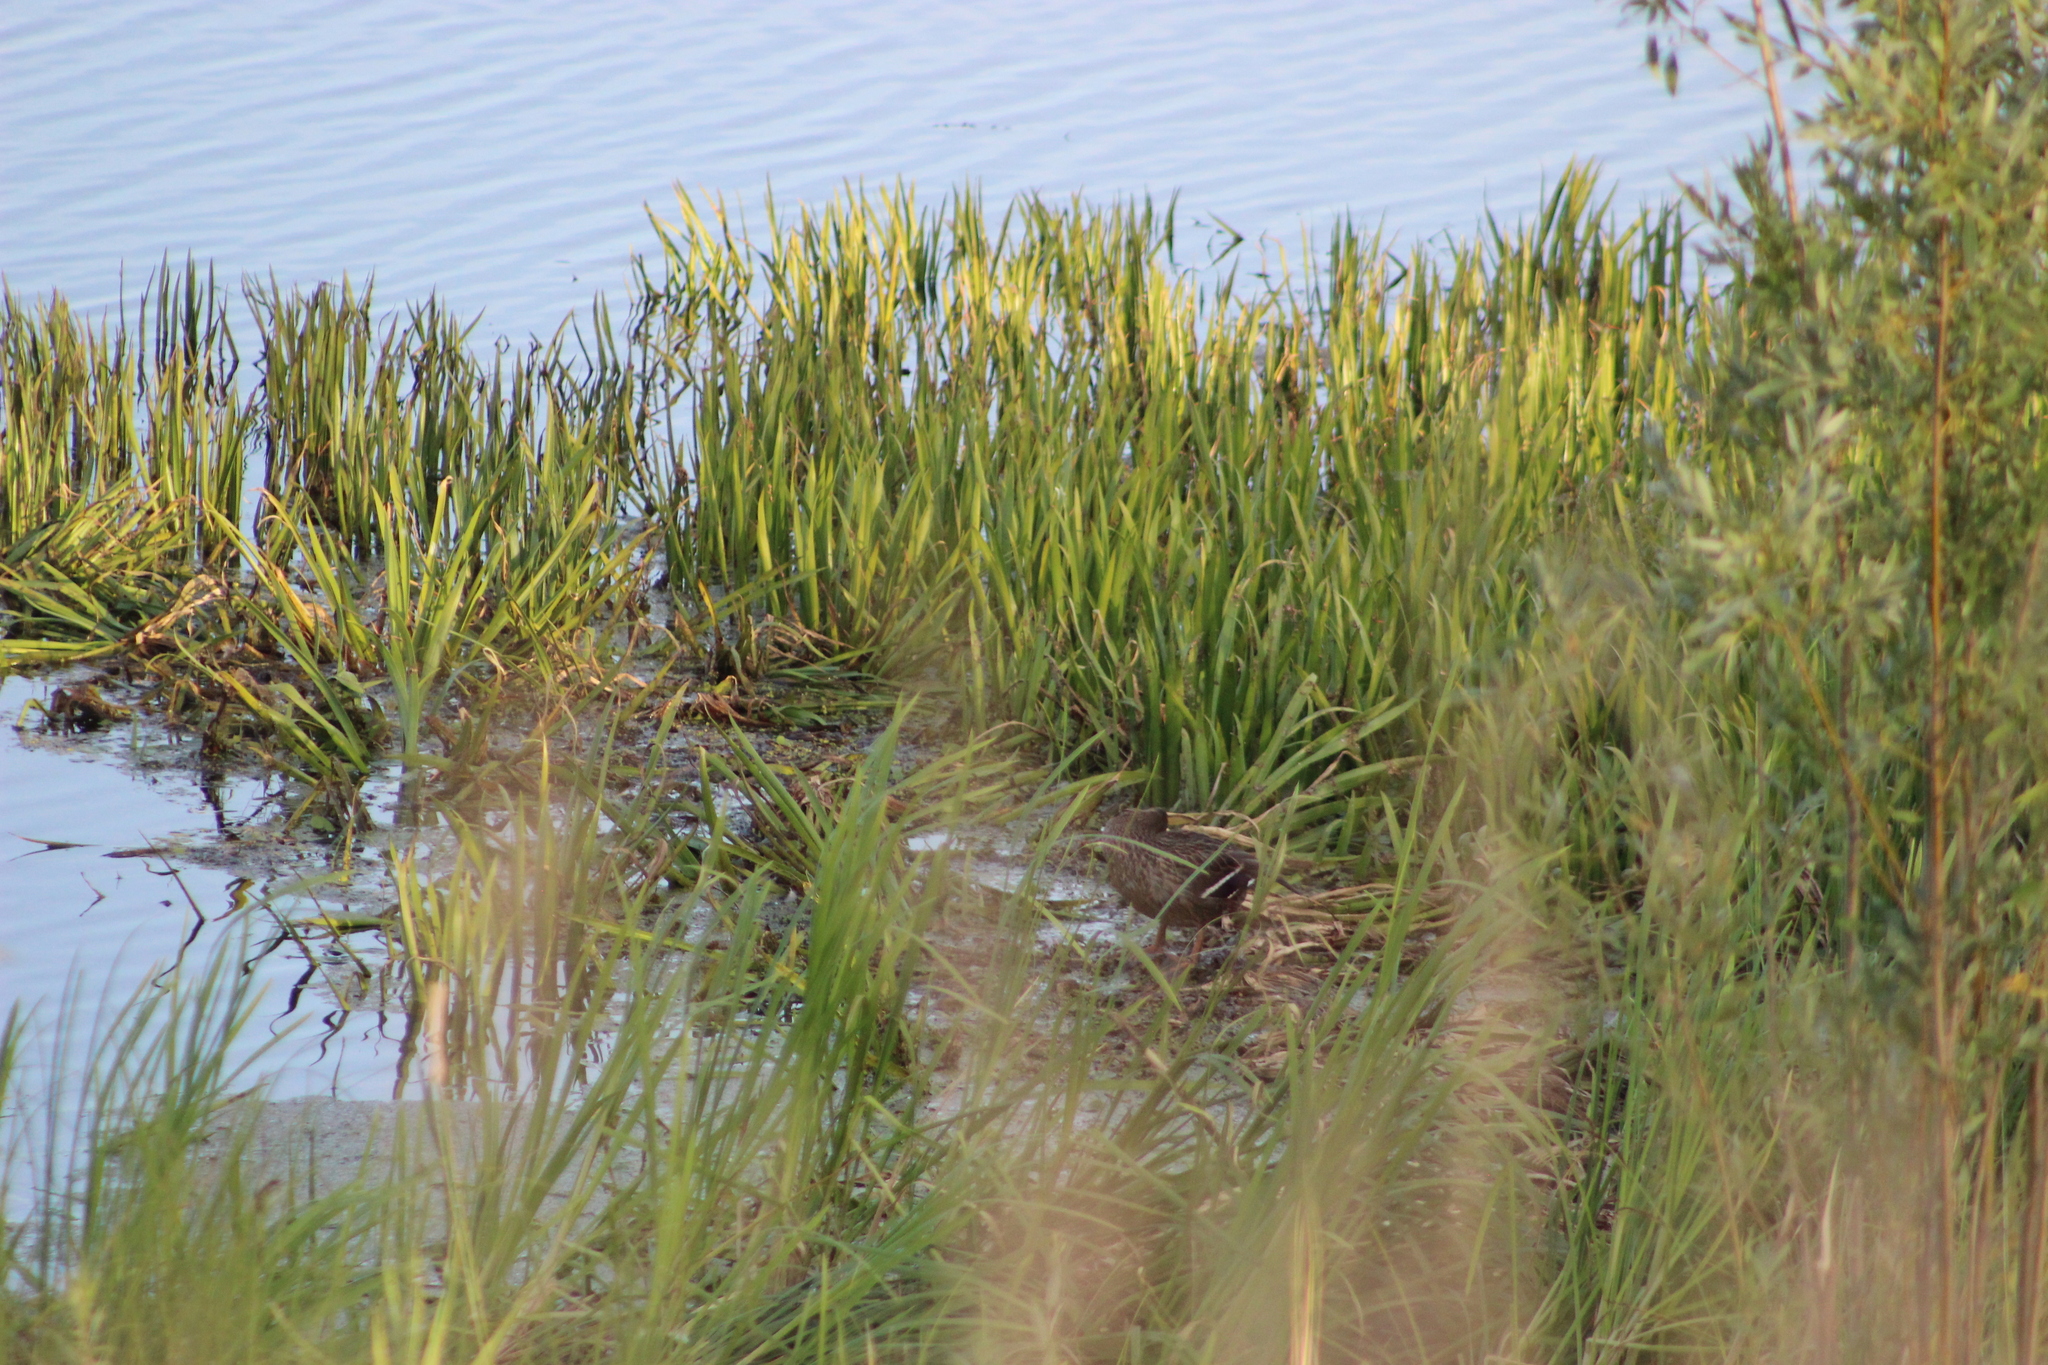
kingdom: Animalia
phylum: Chordata
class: Aves
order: Anseriformes
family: Anatidae
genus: Anas
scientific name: Anas platyrhynchos
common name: Mallard
